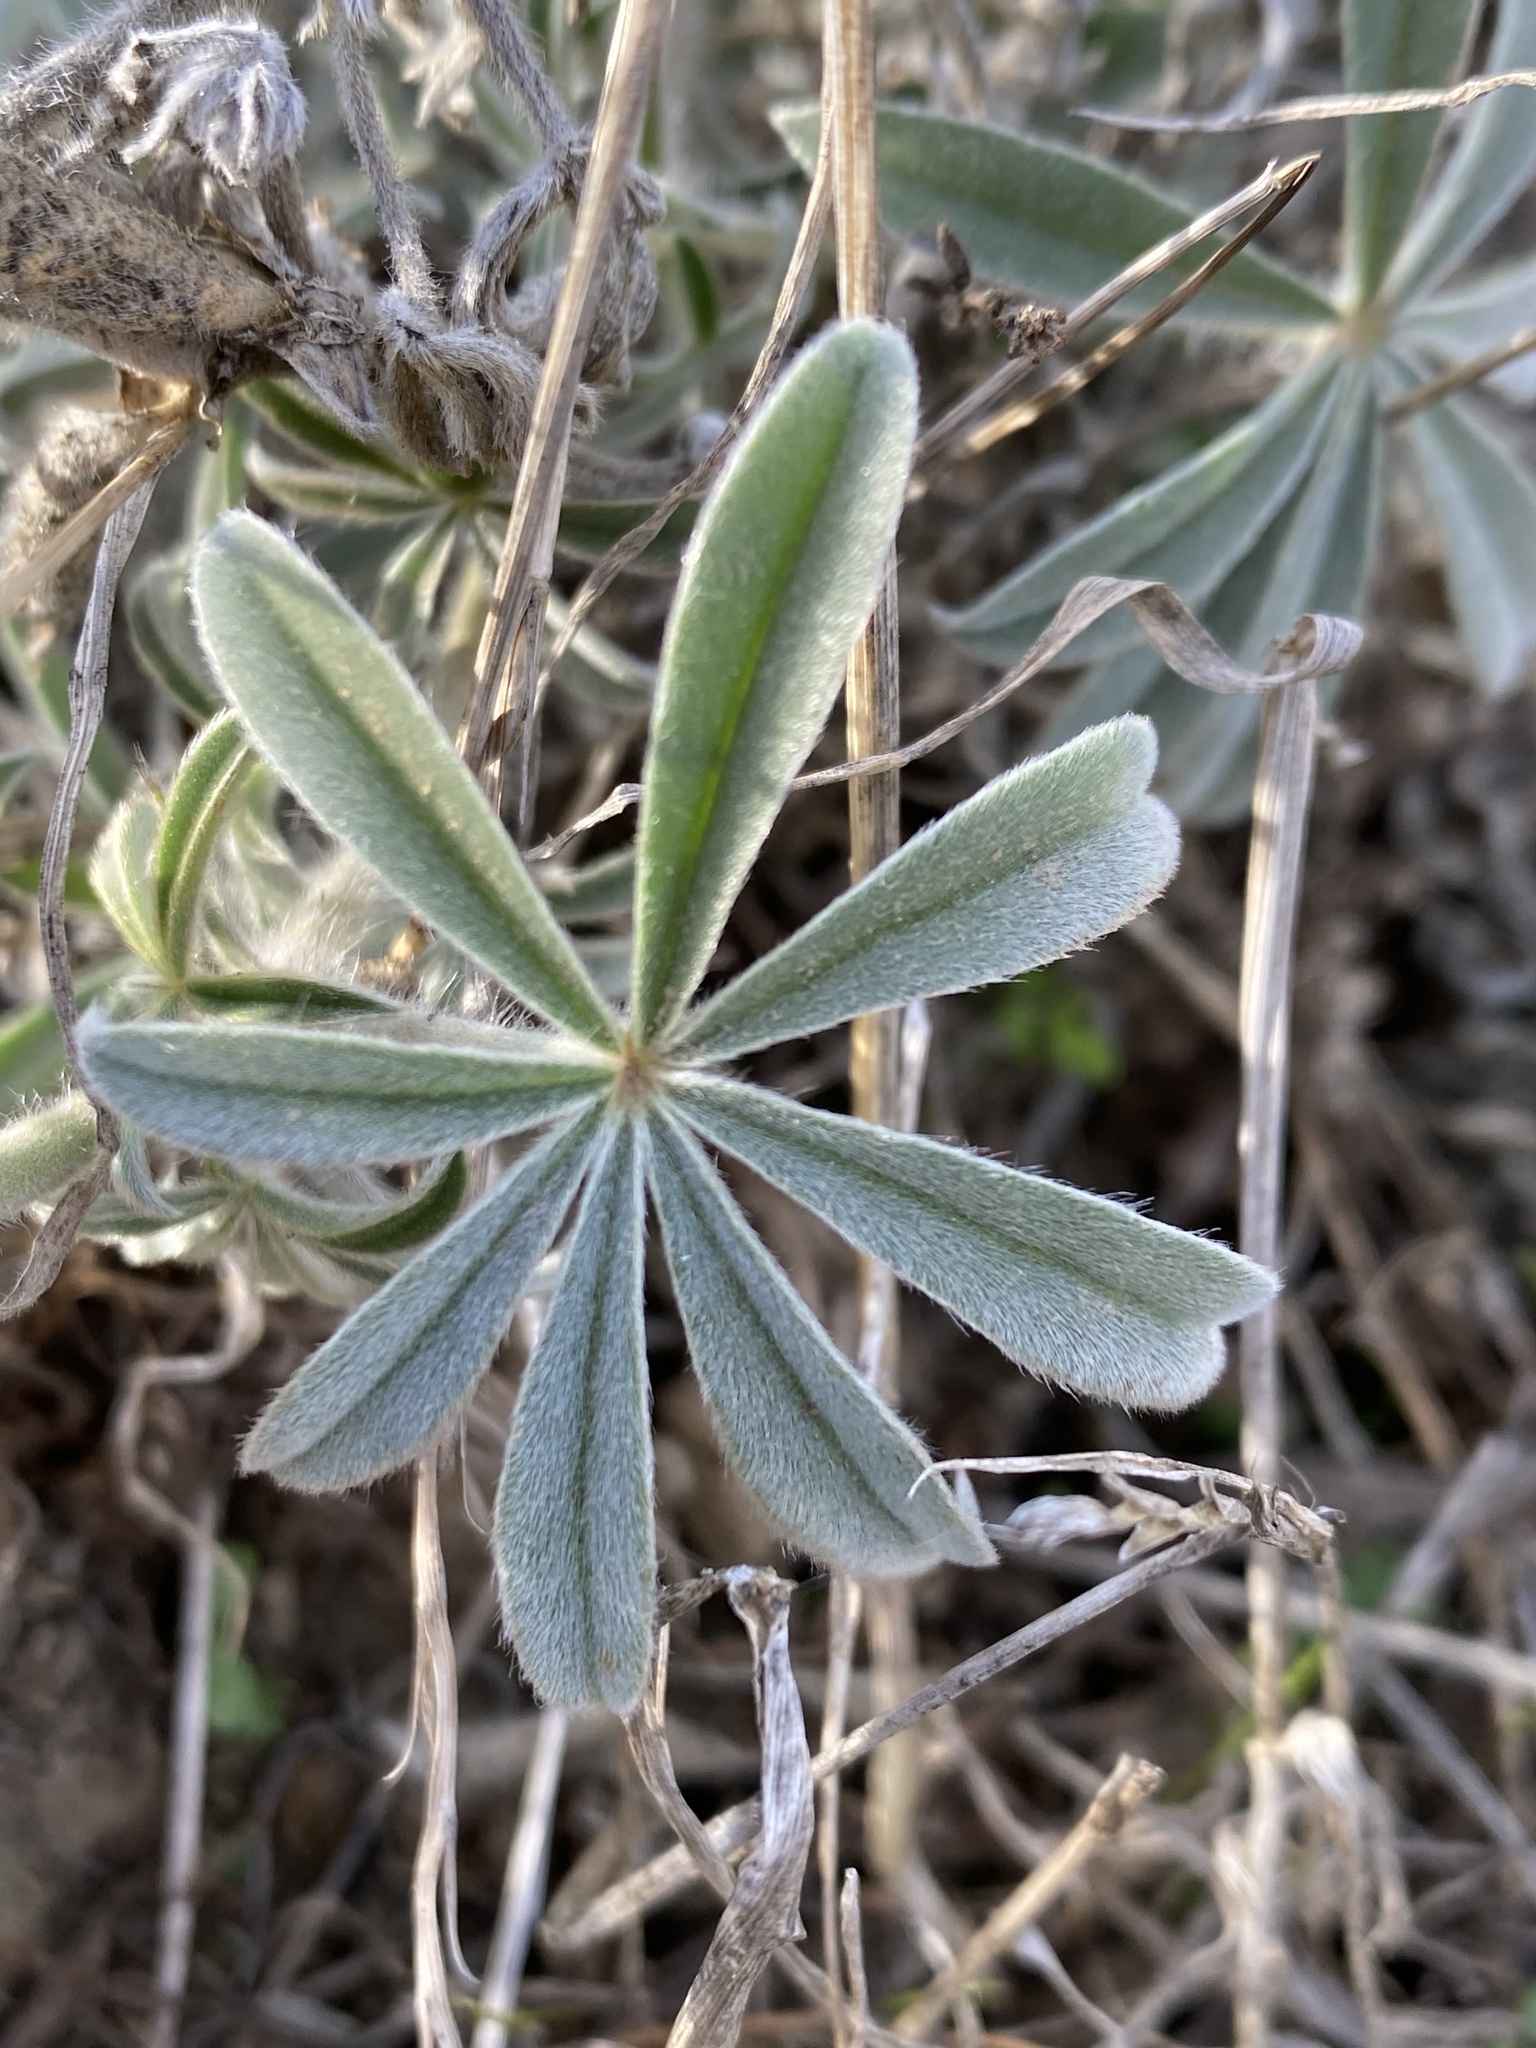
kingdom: Plantae
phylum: Tracheophyta
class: Magnoliopsida
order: Fabales
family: Fabaceae
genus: Lupinus
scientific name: Lupinus formosus
